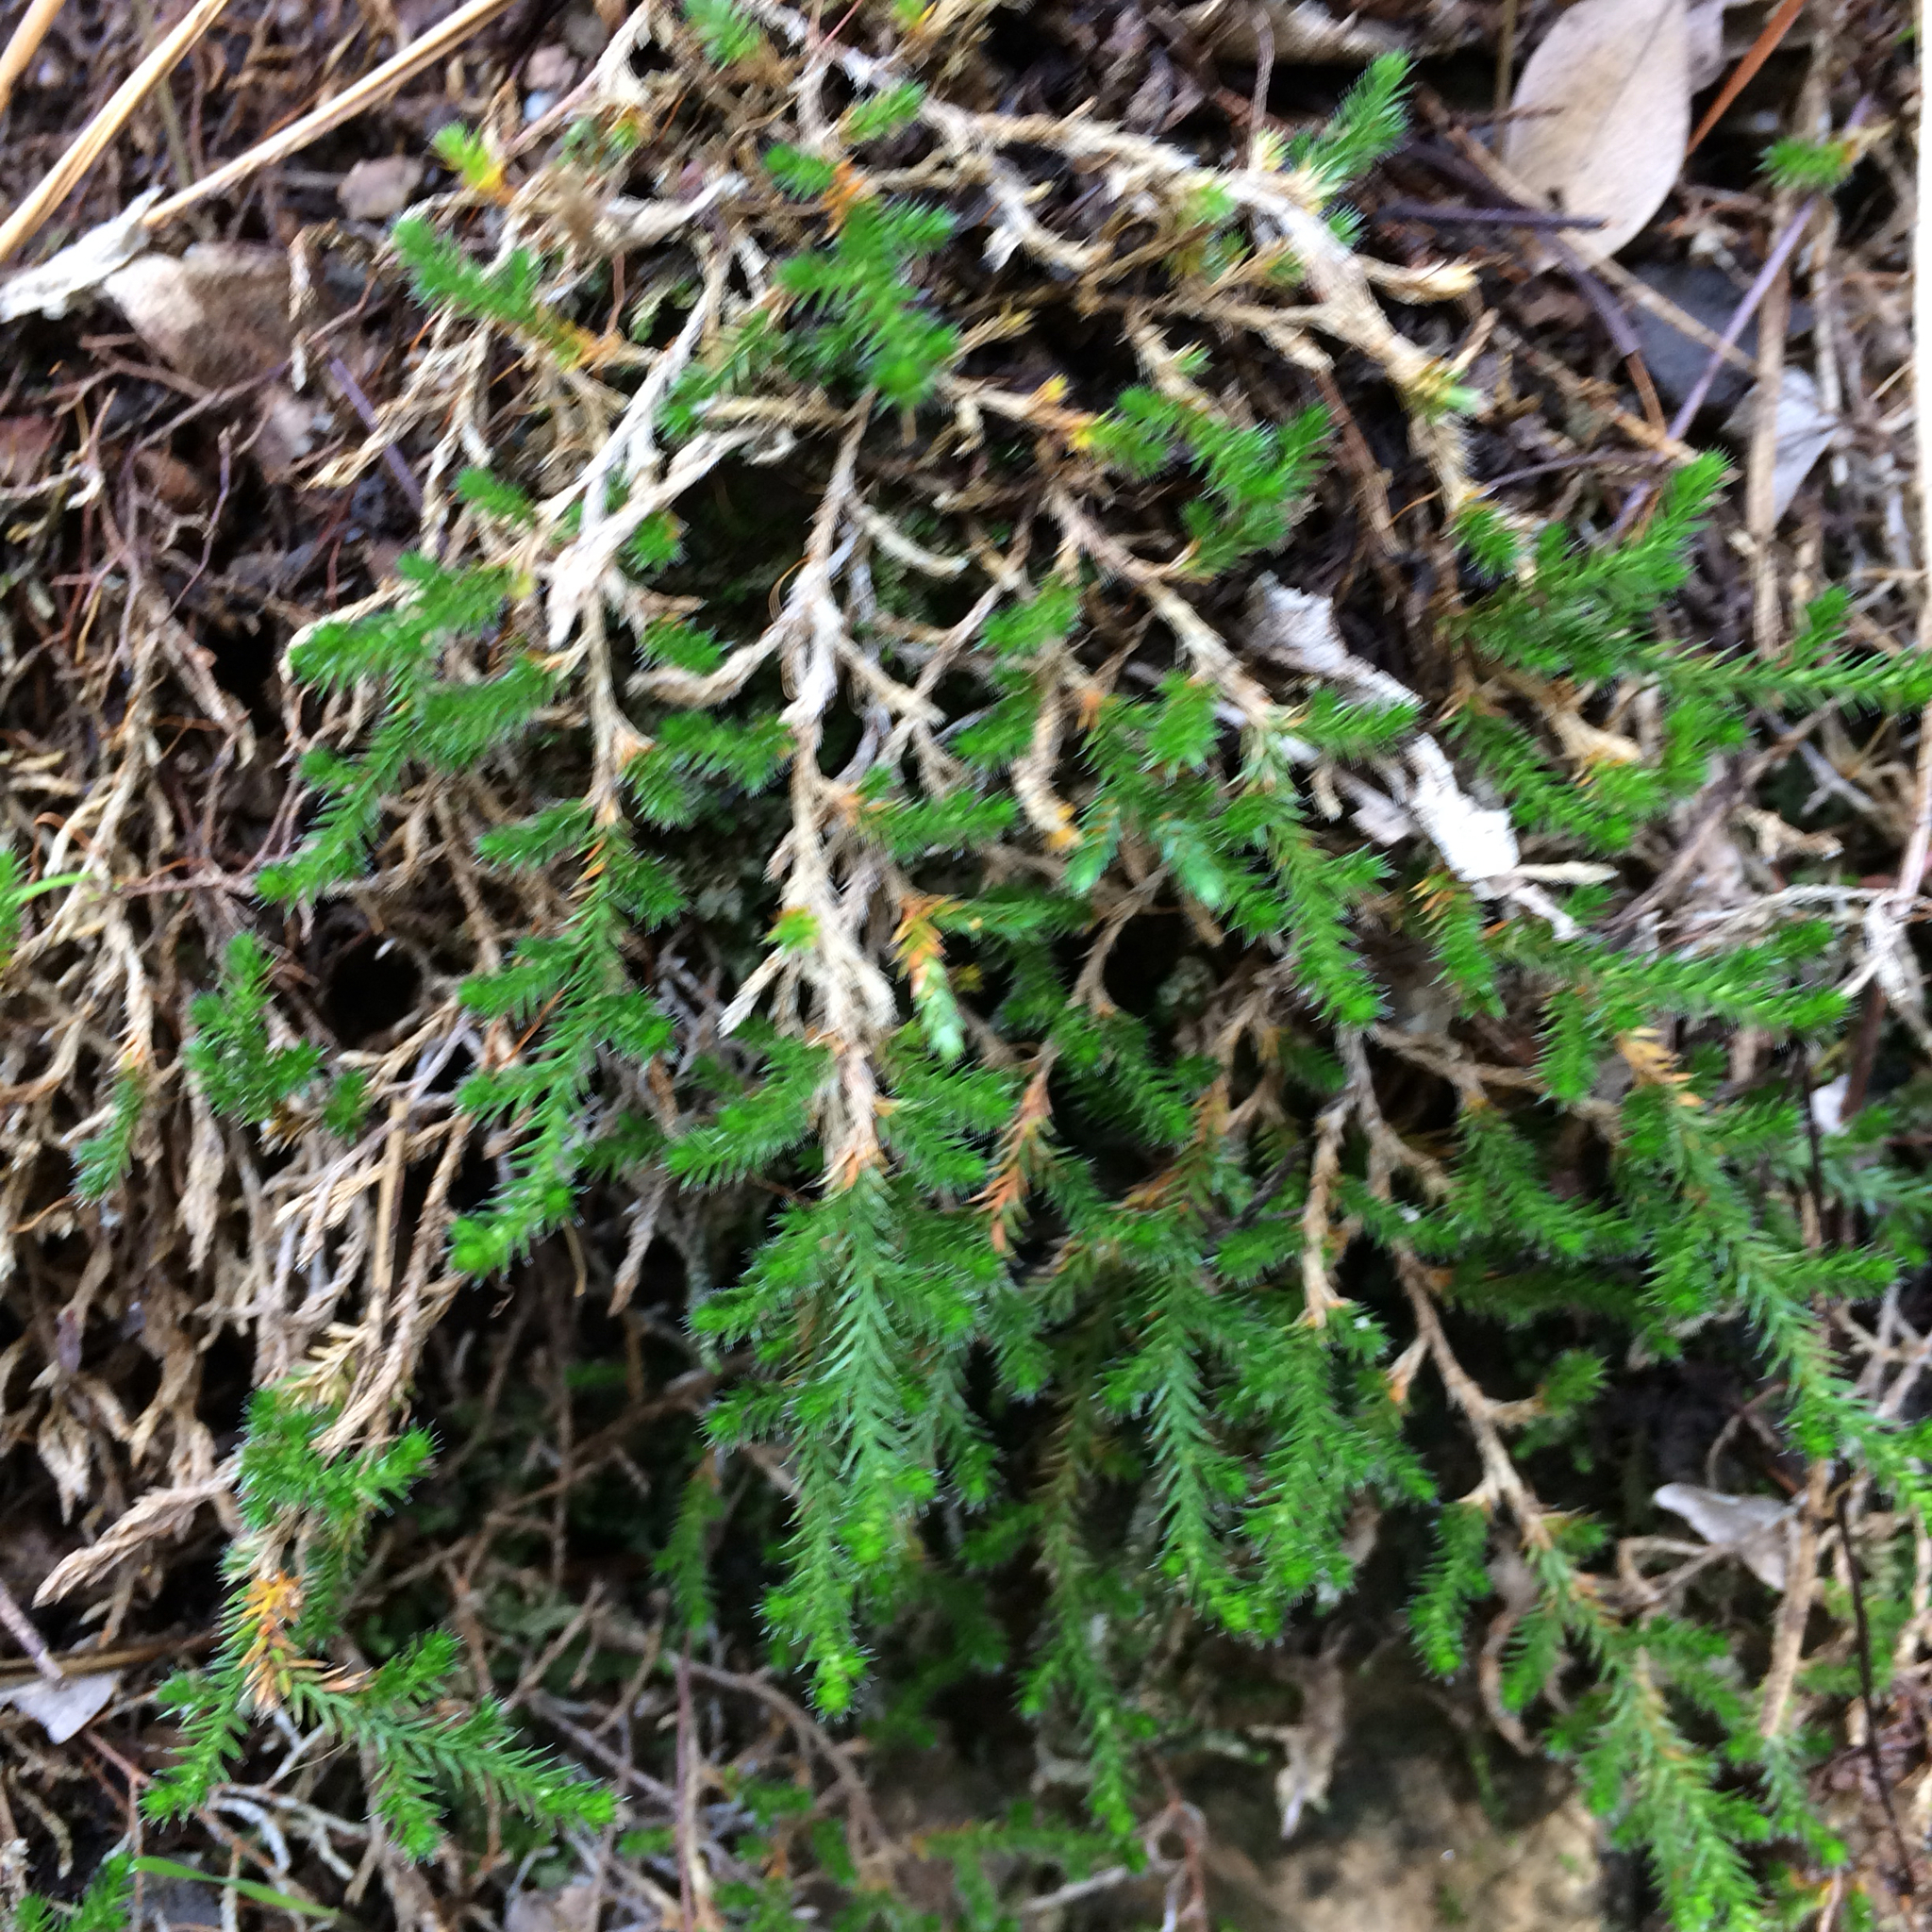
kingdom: Plantae
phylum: Tracheophyta
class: Lycopodiopsida
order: Selaginellales
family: Selaginellaceae
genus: Selaginella
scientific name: Selaginella wallacei
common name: Wallace's selaginella
